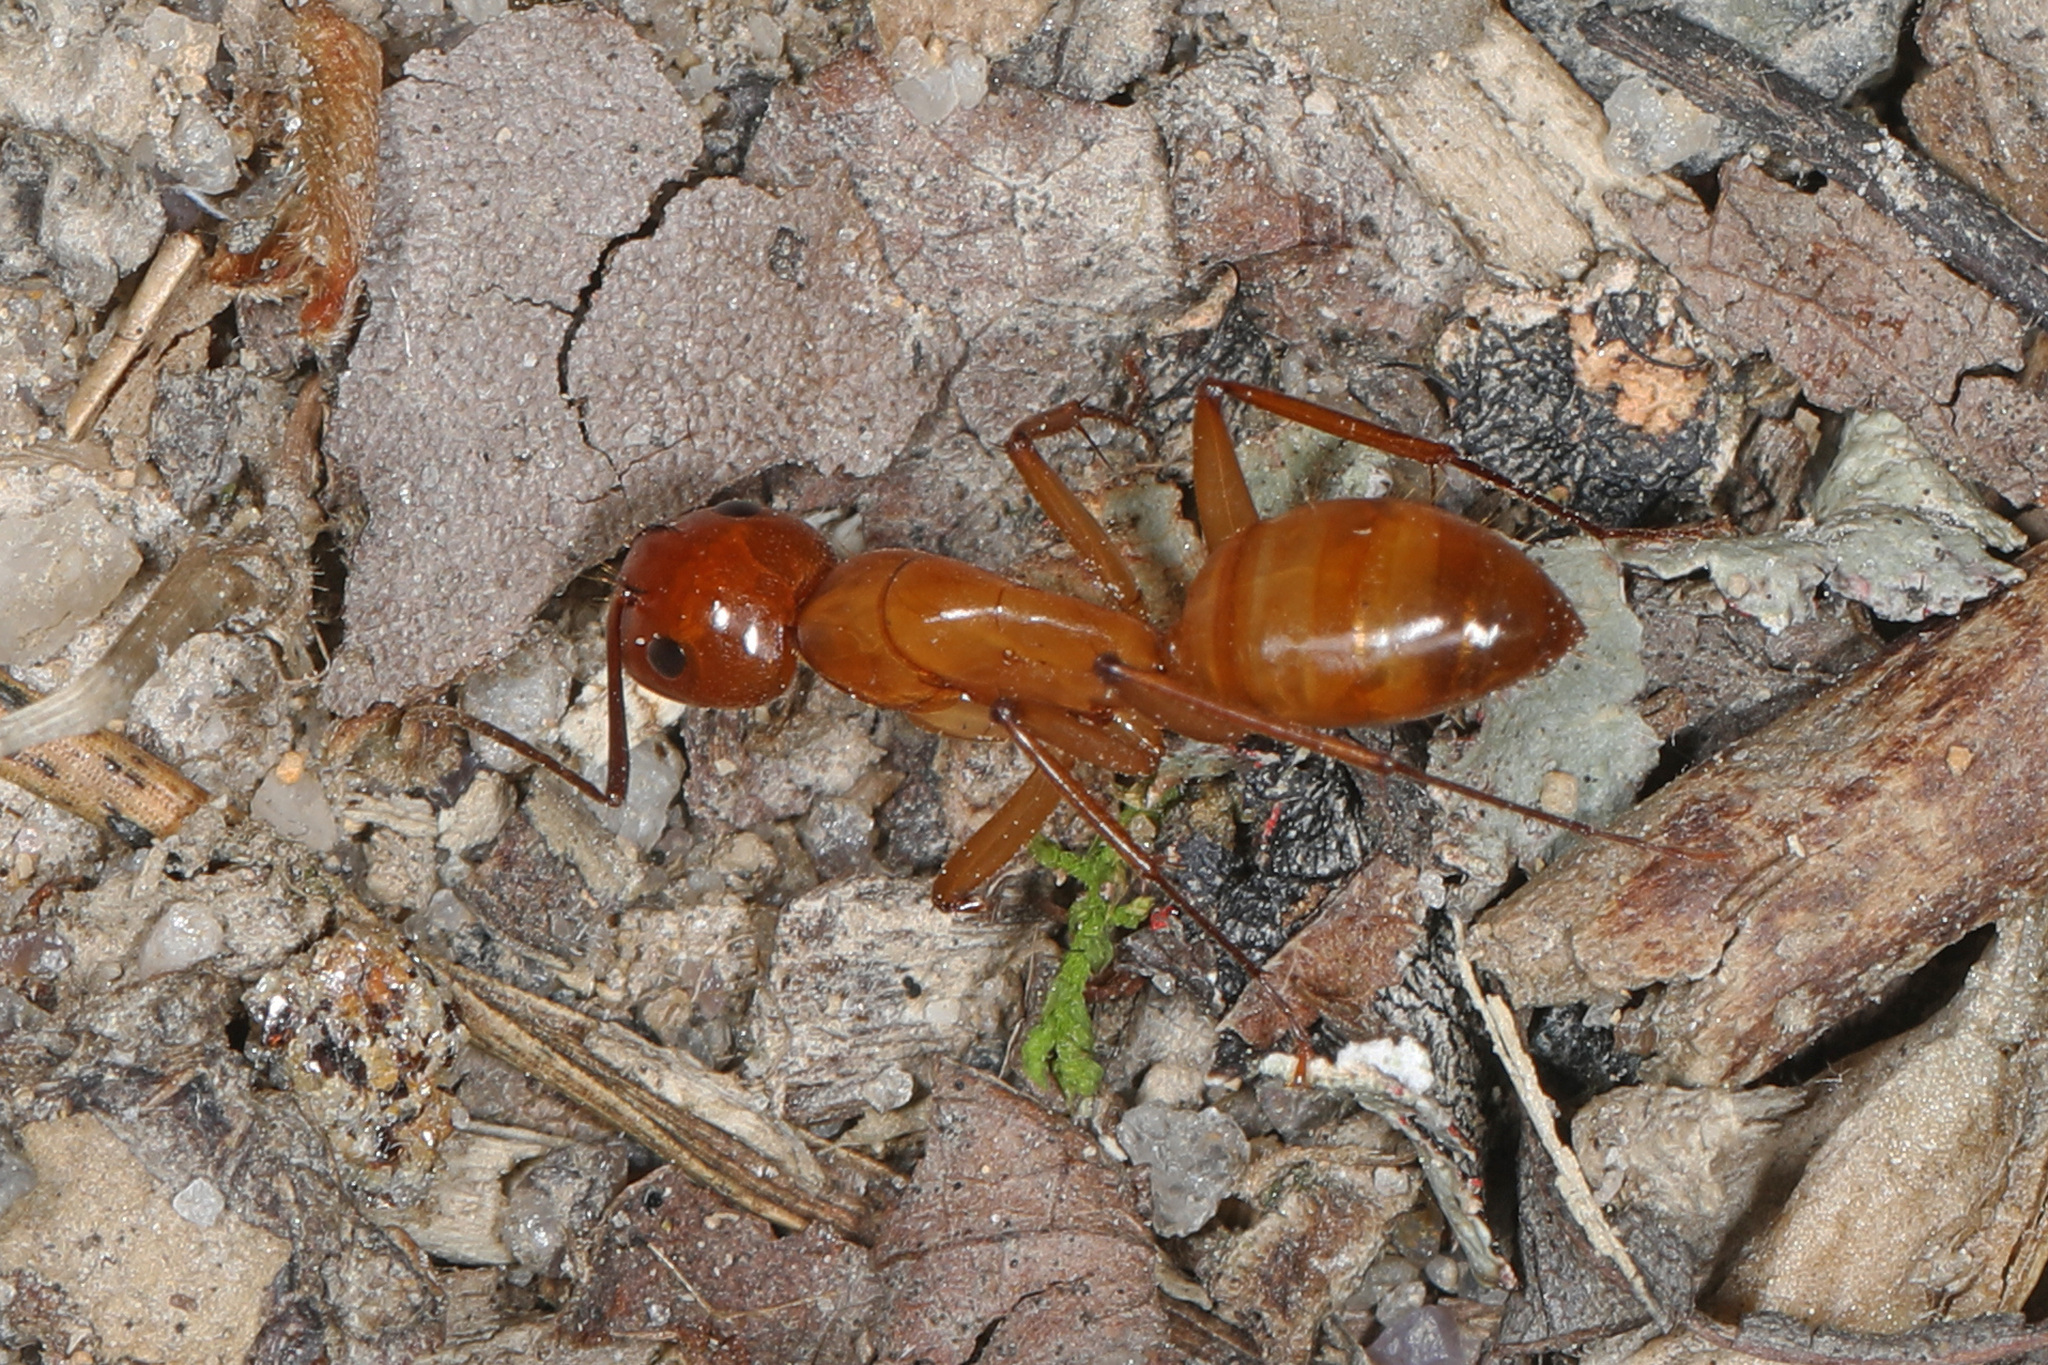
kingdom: Animalia
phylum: Arthropoda
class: Insecta
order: Hymenoptera
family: Formicidae
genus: Camponotus
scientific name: Camponotus castaneus
